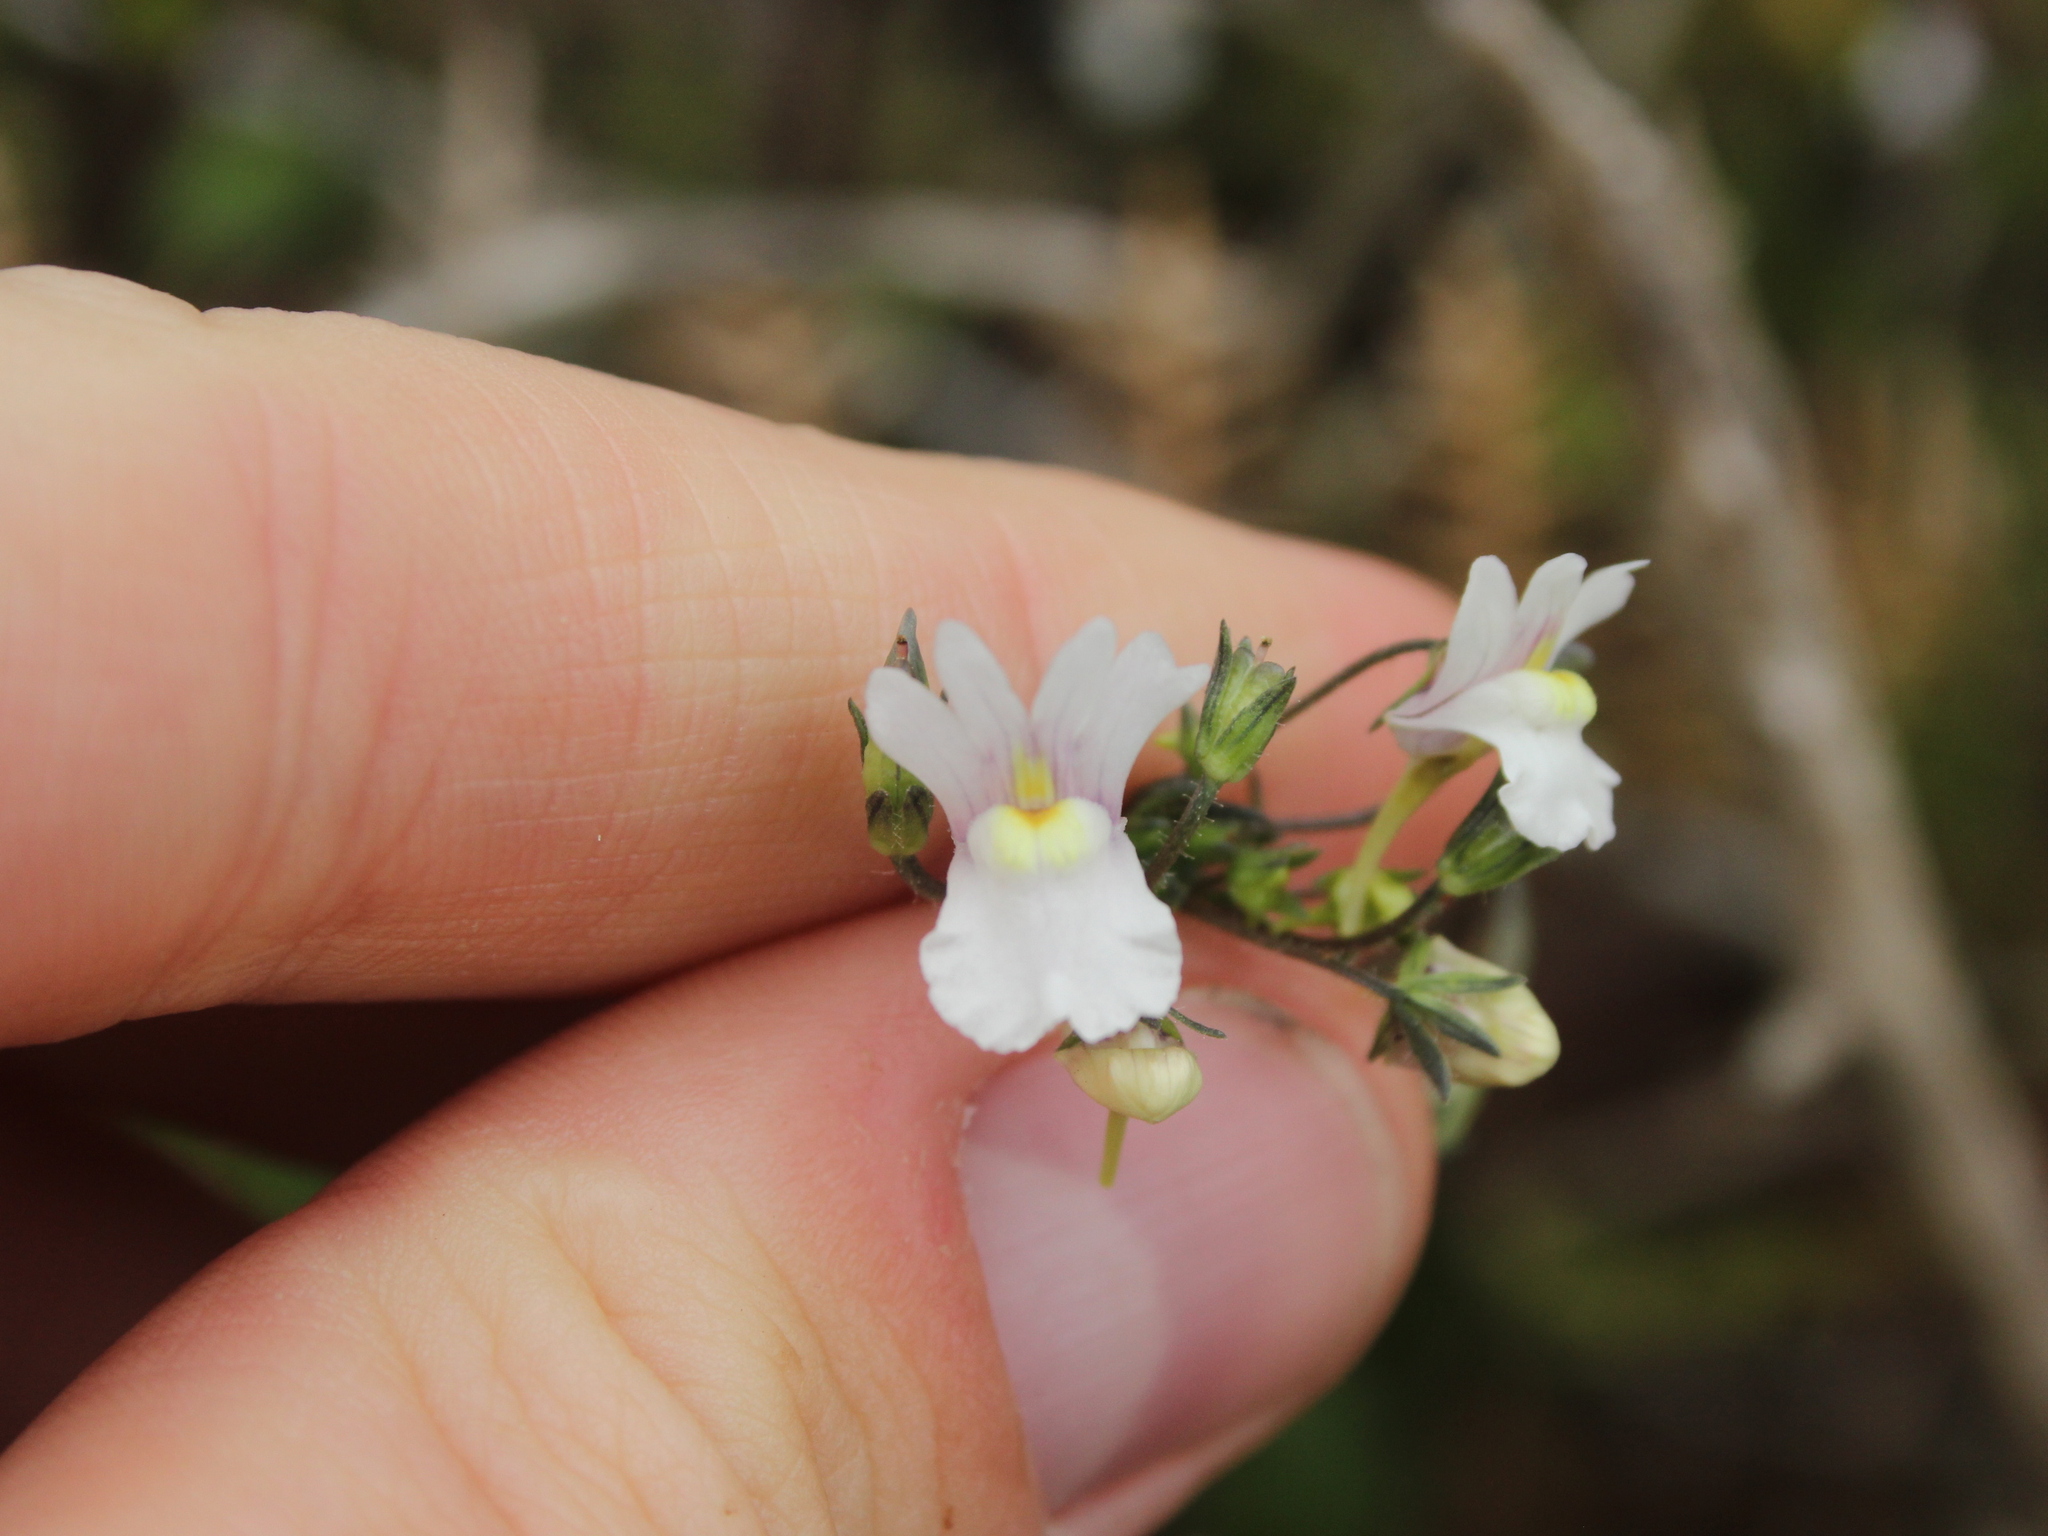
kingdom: Plantae
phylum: Tracheophyta
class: Magnoliopsida
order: Lamiales
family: Scrophulariaceae
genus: Nemesia
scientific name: Nemesia floribunda
